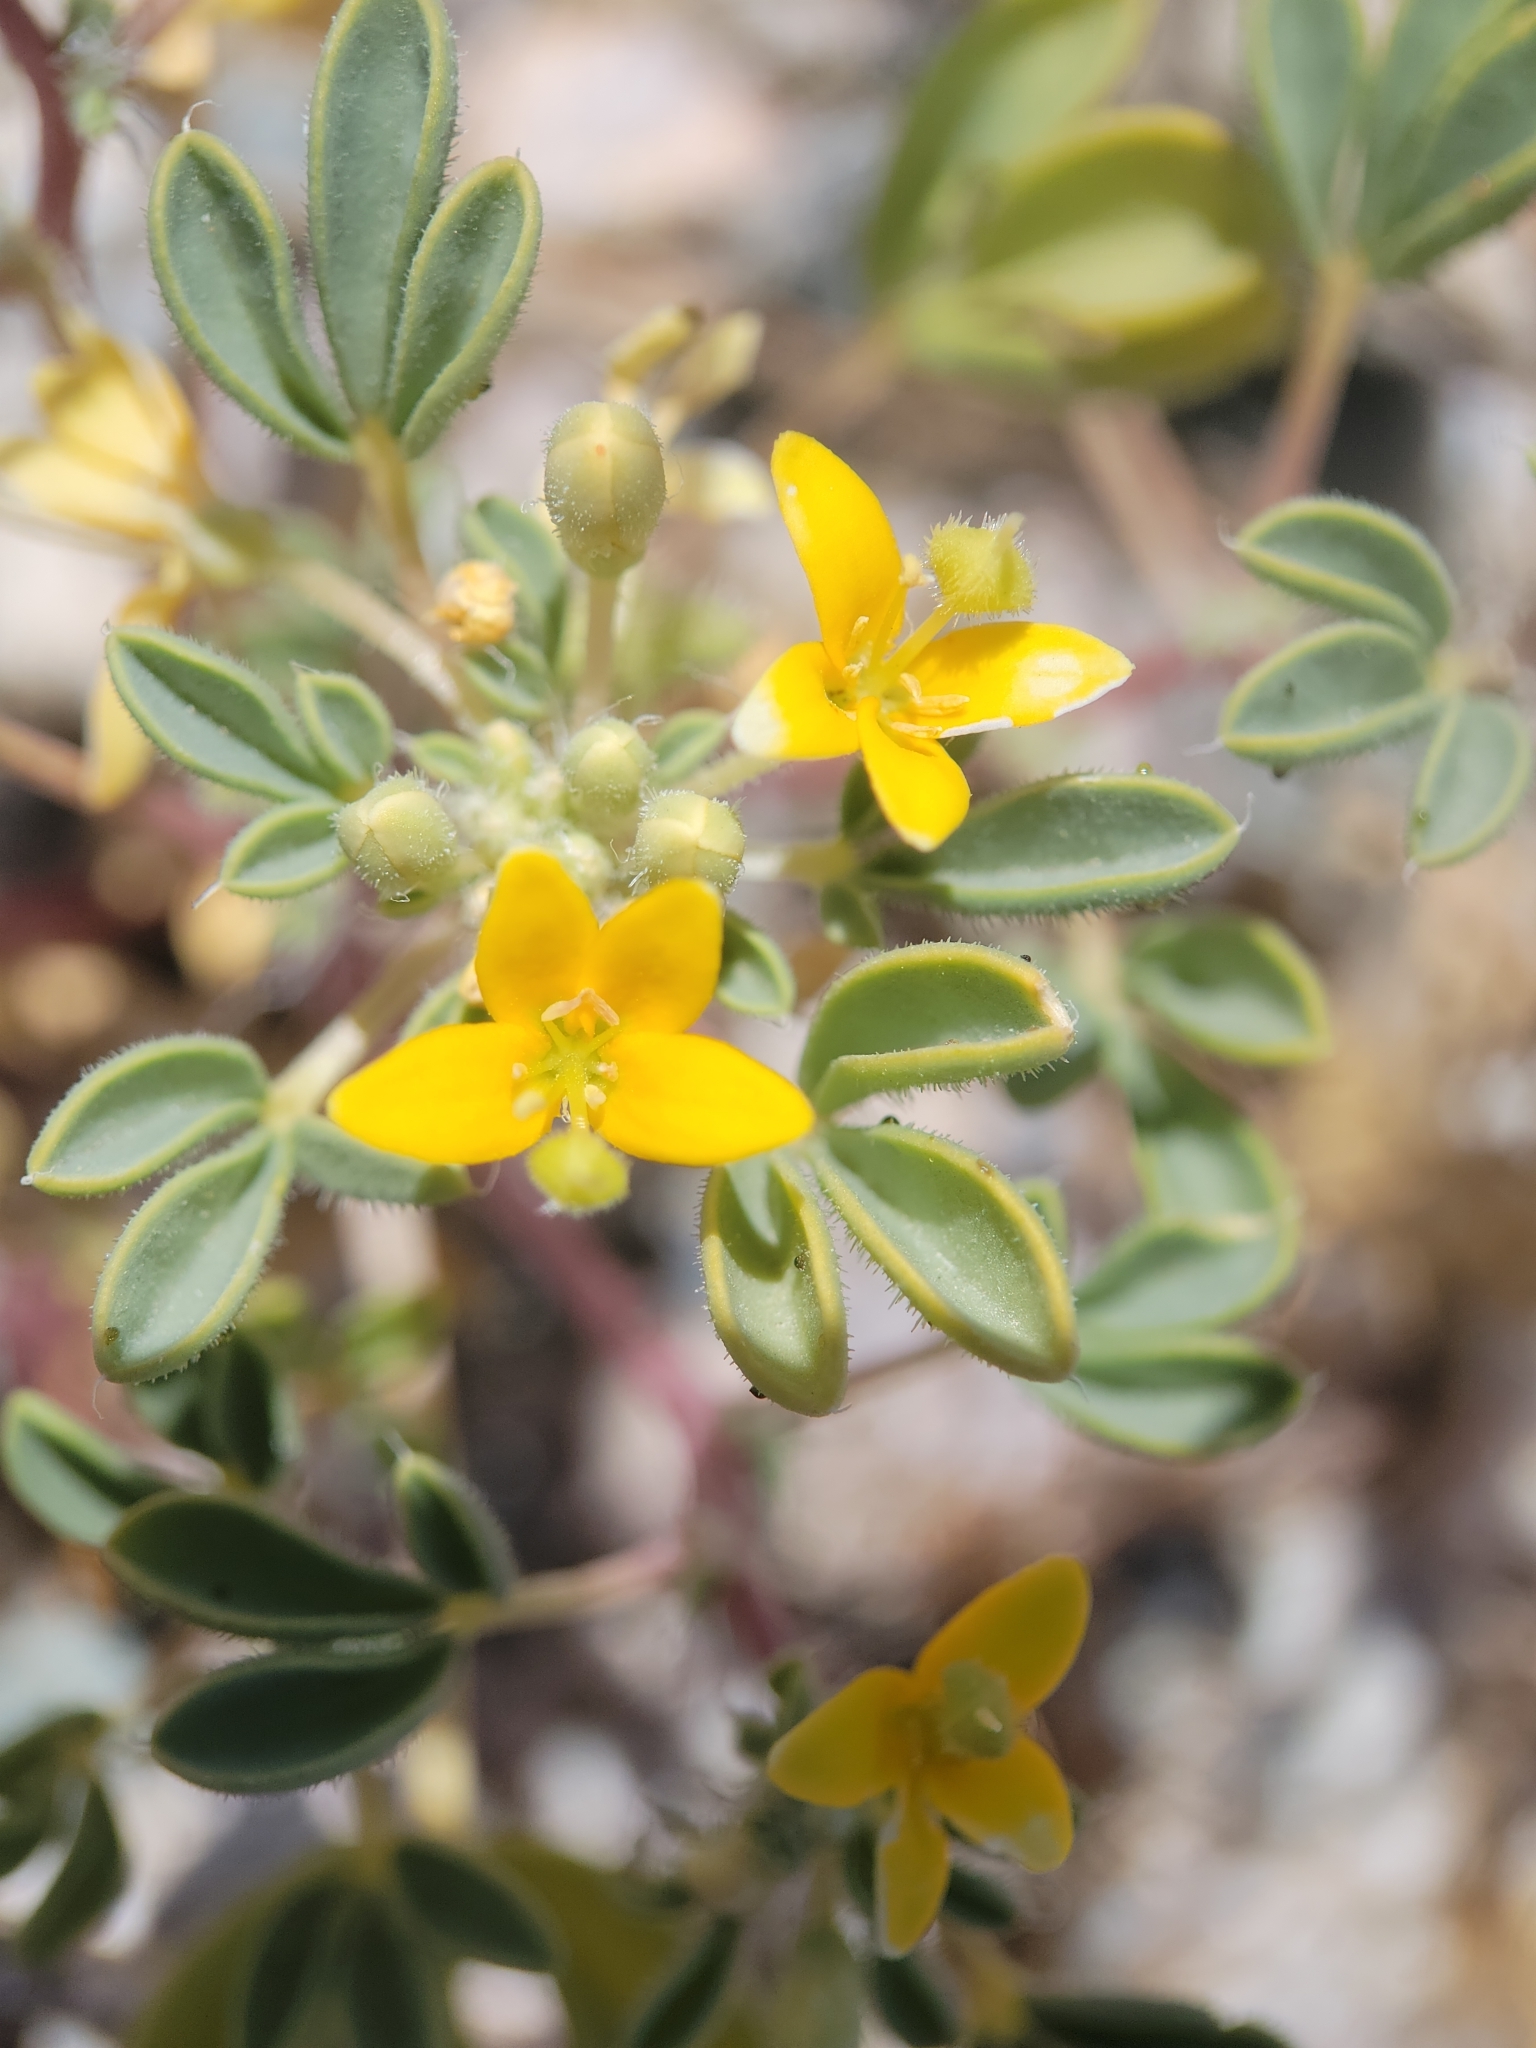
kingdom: Plantae
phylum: Tracheophyta
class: Magnoliopsida
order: Brassicales
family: Cleomaceae
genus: Cleomella
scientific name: Cleomella obtusifolia
